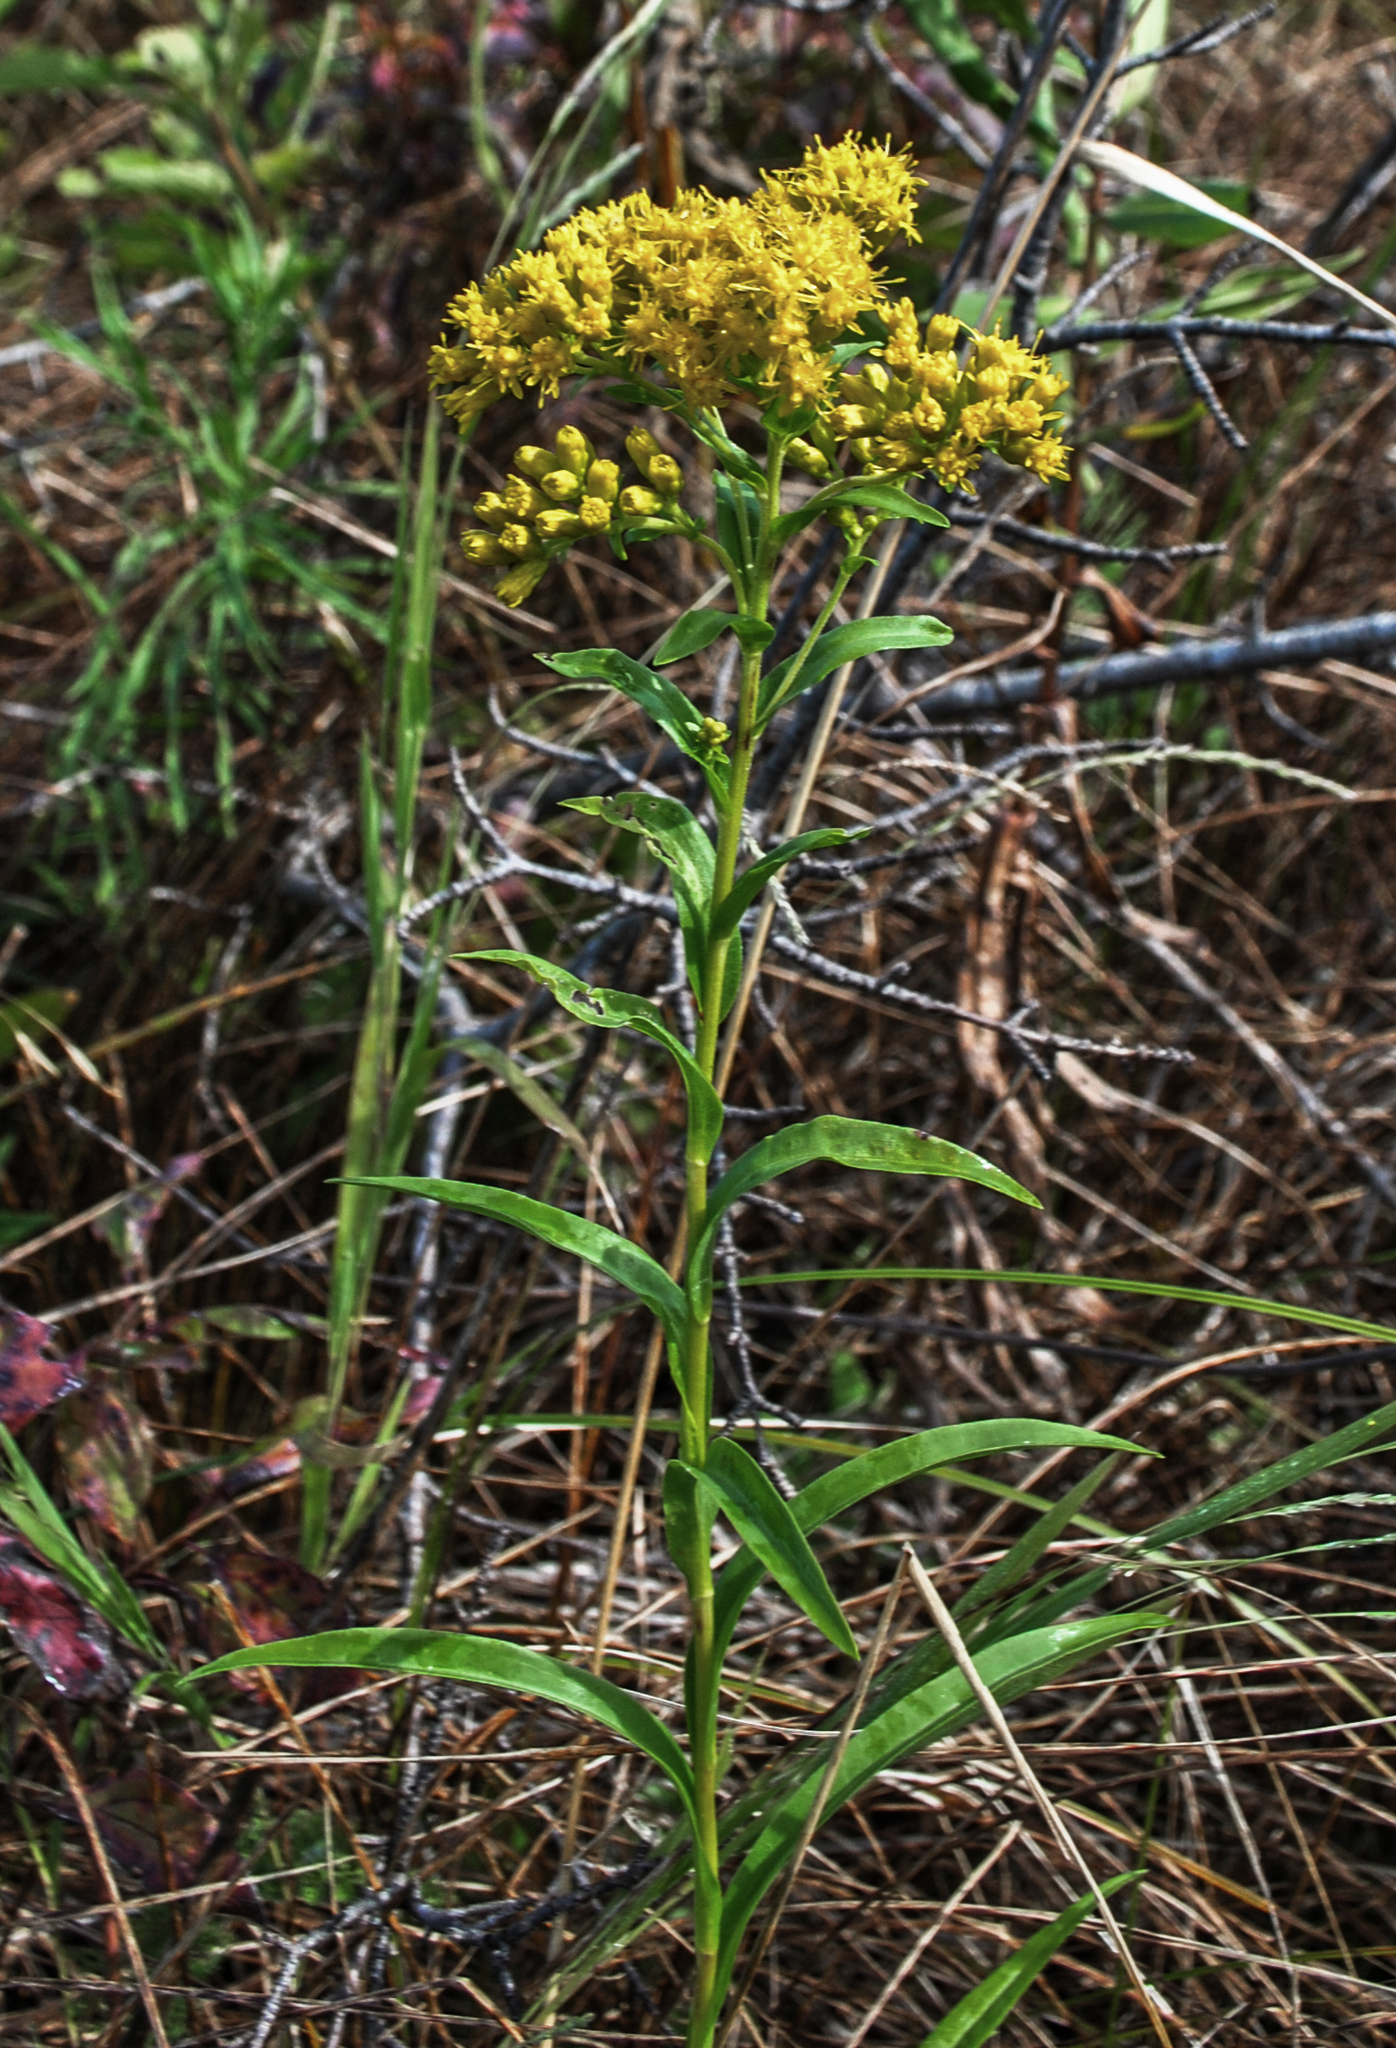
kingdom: Plantae
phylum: Tracheophyta
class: Magnoliopsida
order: Asterales
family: Asteraceae
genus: Solidago
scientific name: Solidago riddellii
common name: Riddell's goldenrod
